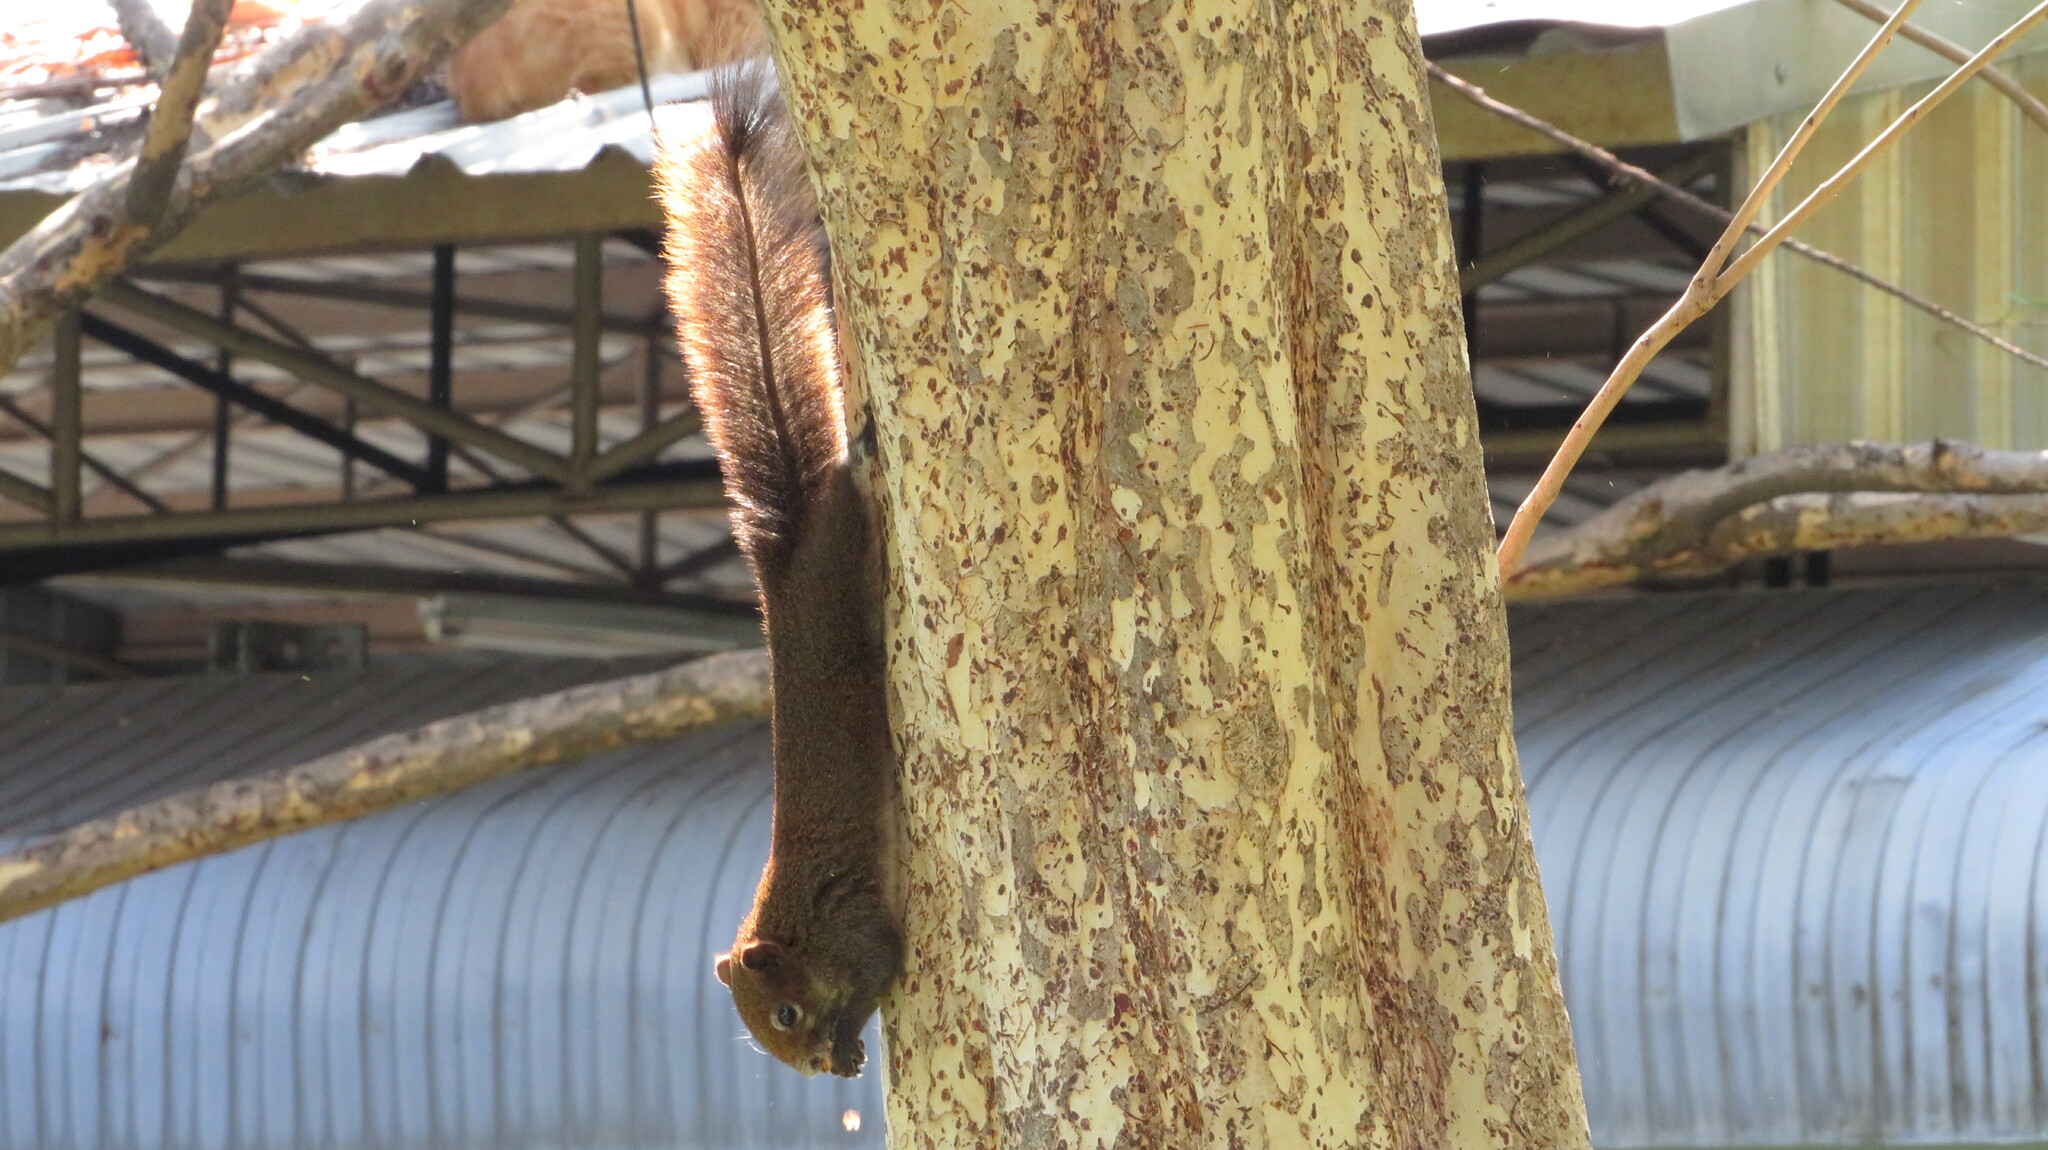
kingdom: Animalia
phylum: Chordata
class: Mammalia
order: Rodentia
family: Sciuridae
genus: Callosciurus
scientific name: Callosciurus erythraeus
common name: Pallas's squirrel
